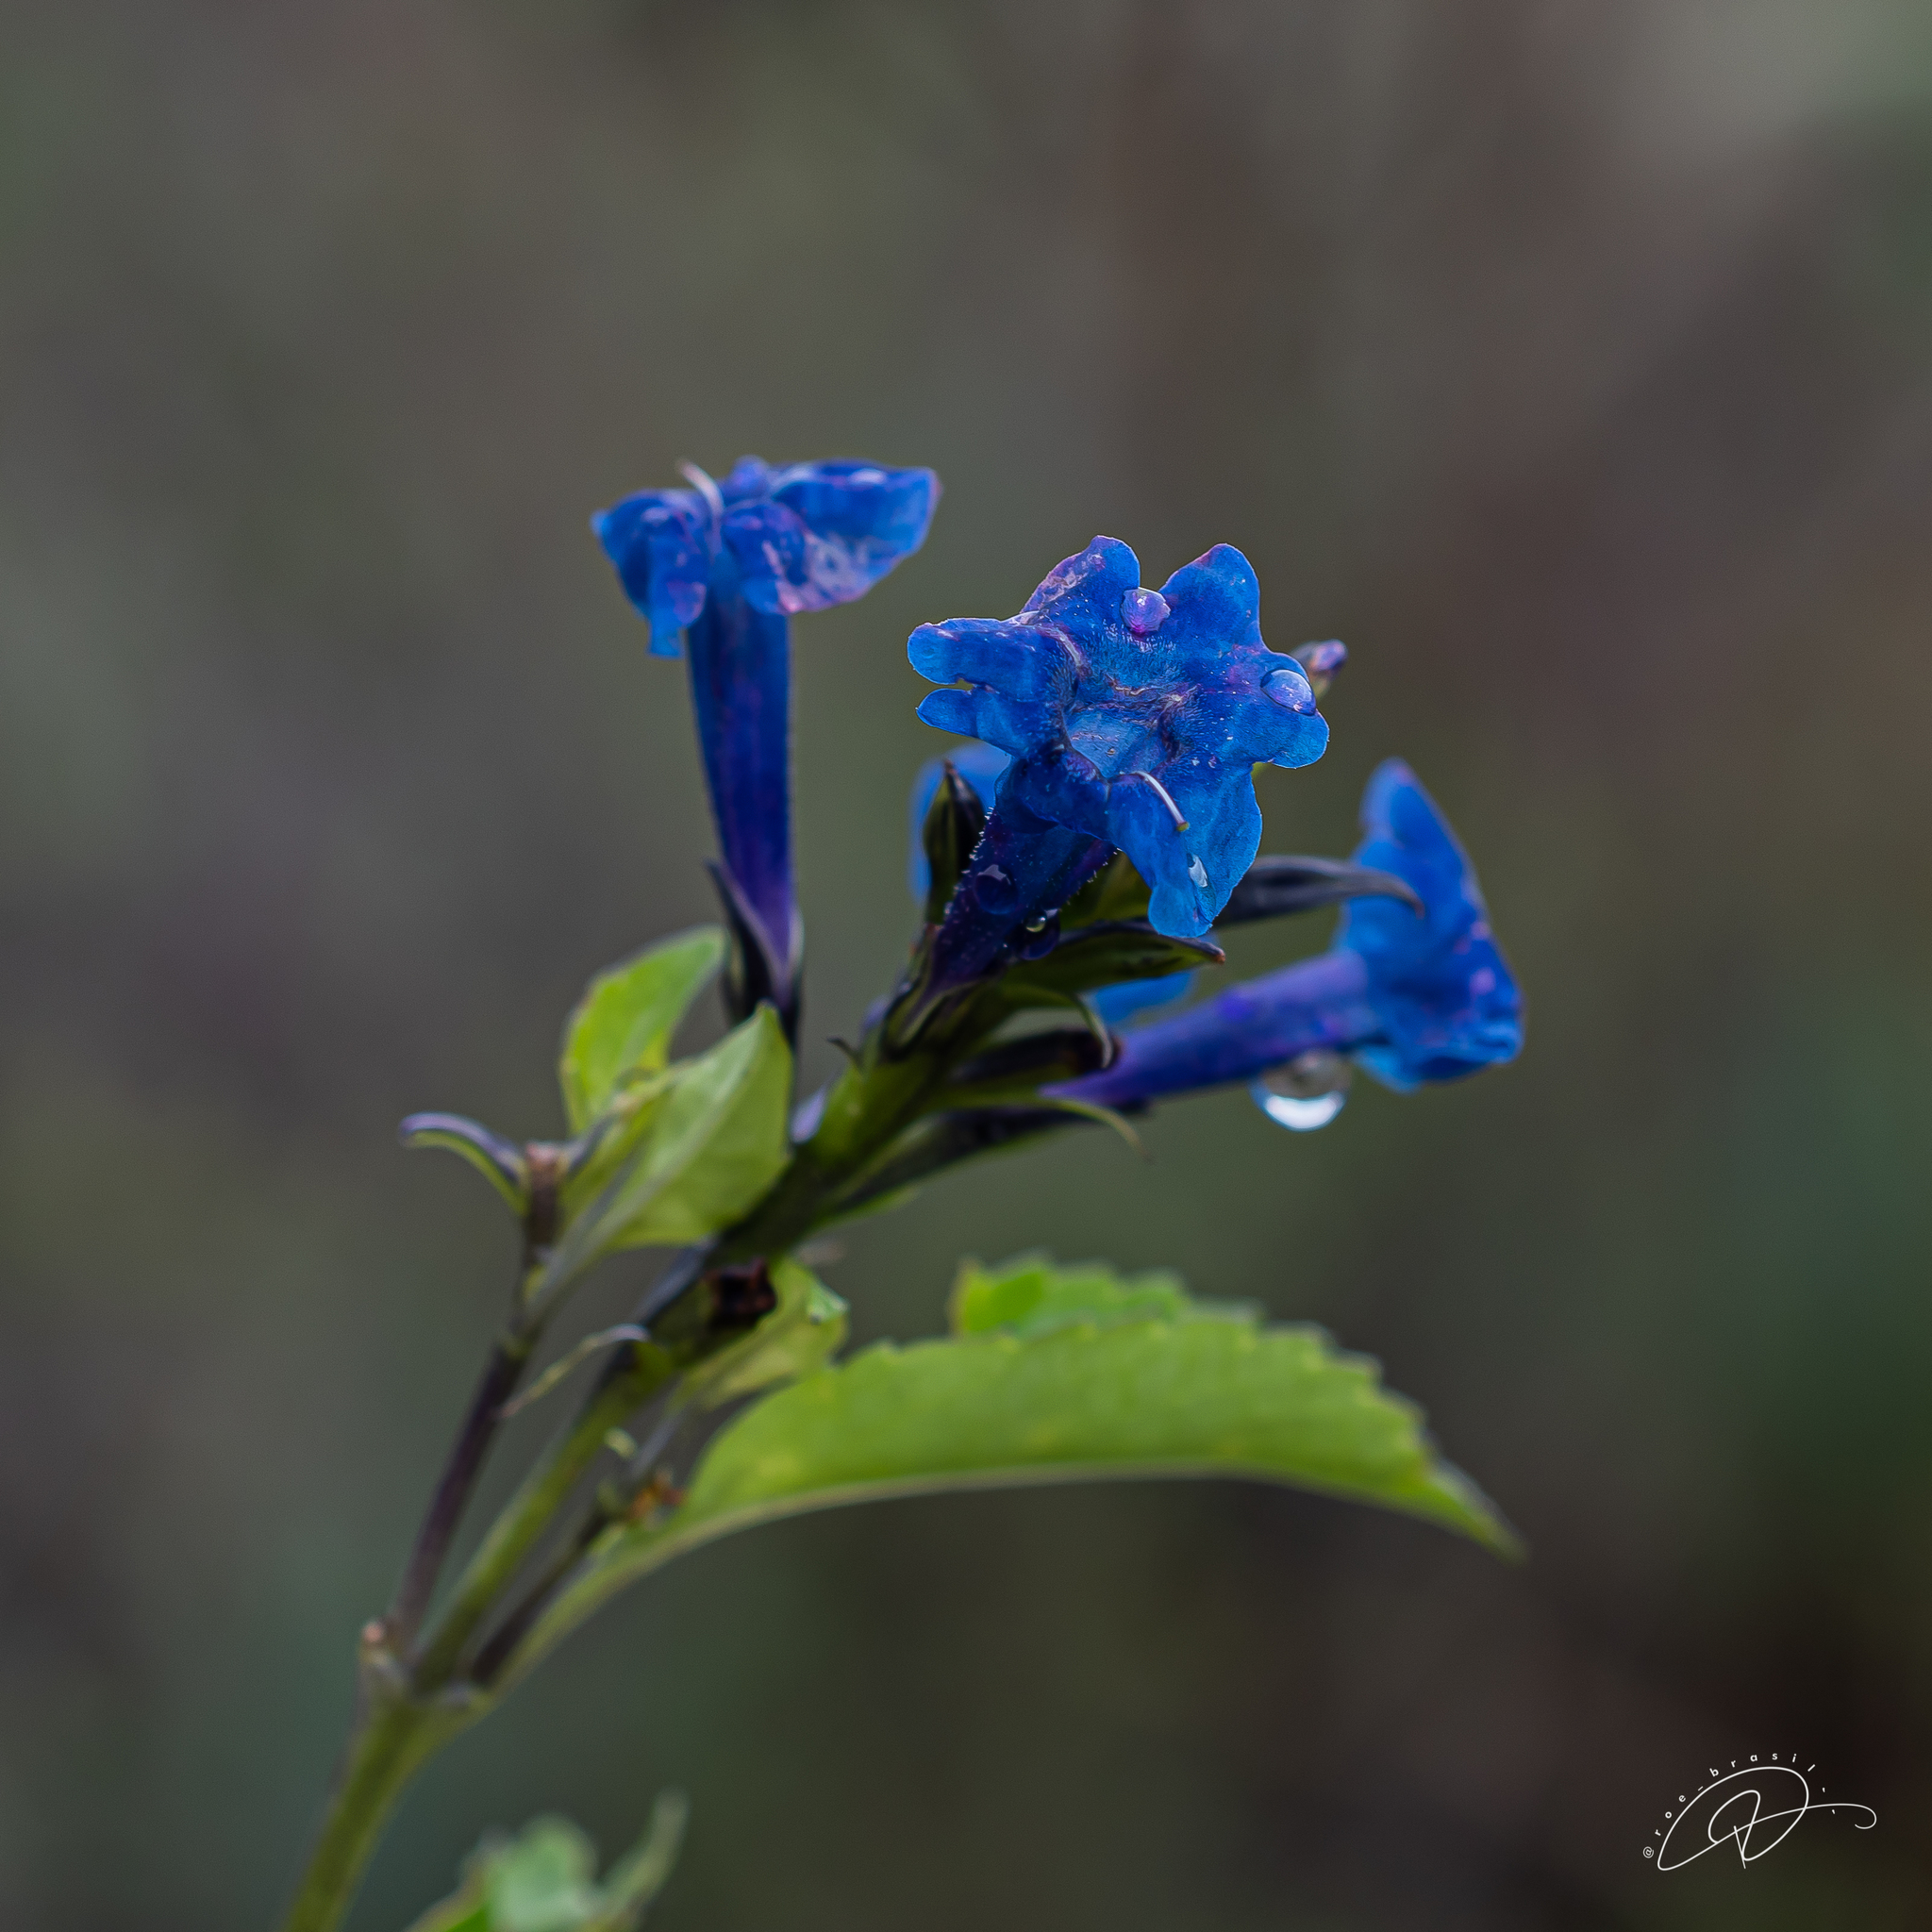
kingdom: Plantae
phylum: Tracheophyta
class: Magnoliopsida
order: Lamiales
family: Verbenaceae
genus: Stachytarpheta
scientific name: Stachytarpheta reticulata
